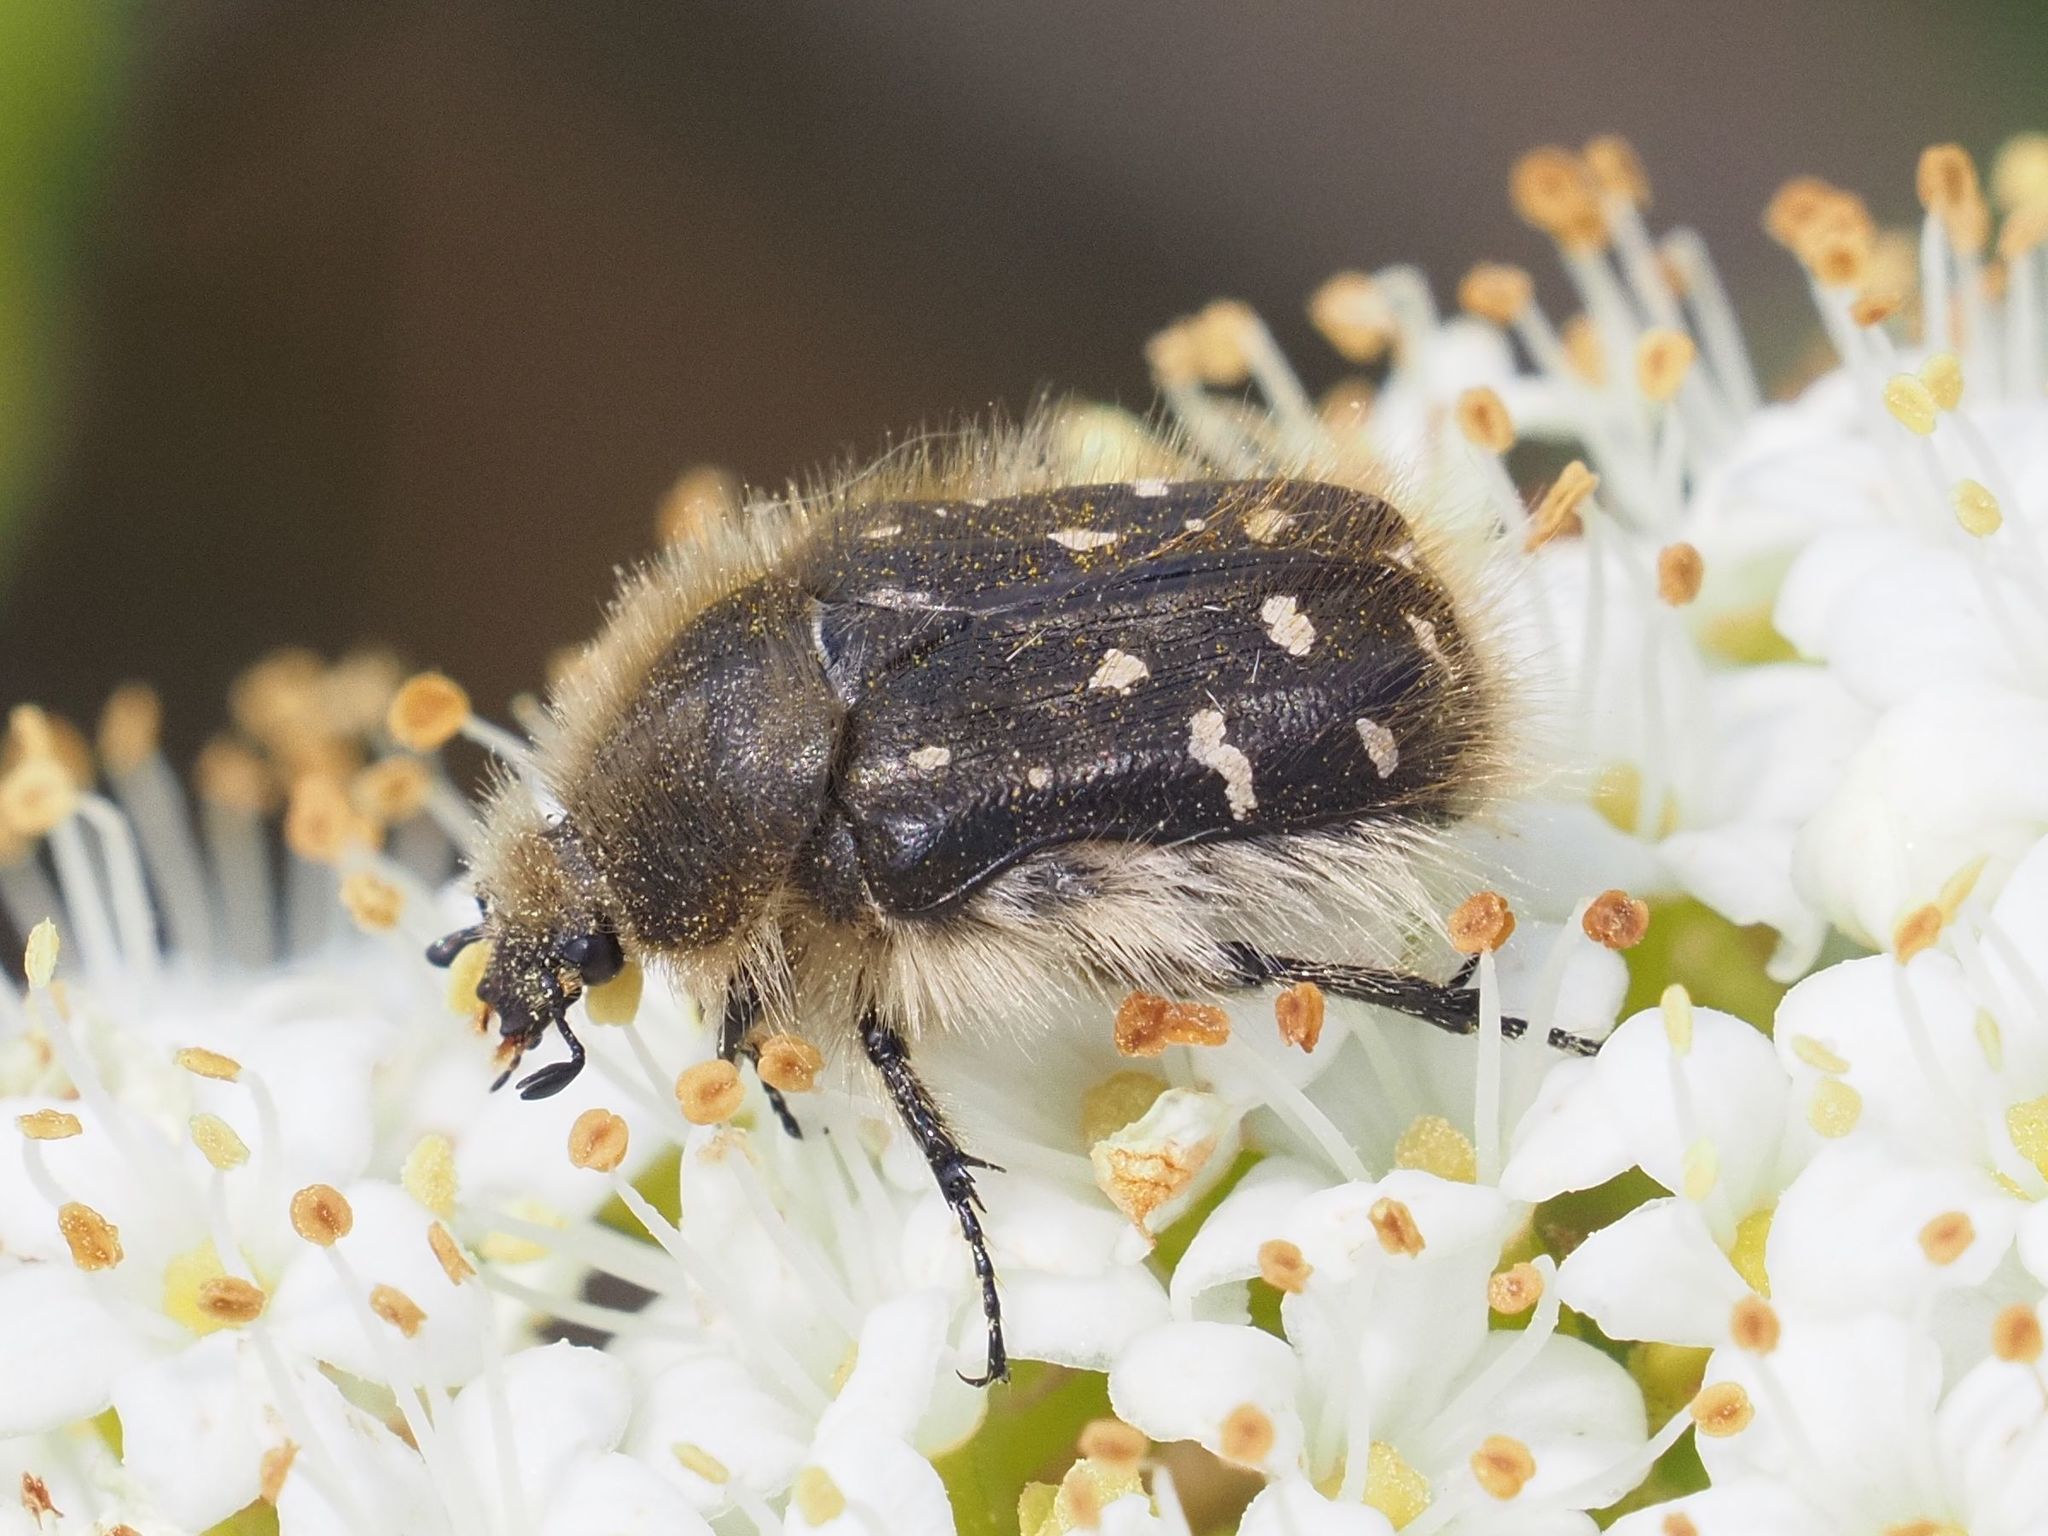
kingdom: Animalia
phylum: Arthropoda
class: Insecta
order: Coleoptera
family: Scarabaeidae
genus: Tropinota
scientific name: Tropinota hirta
